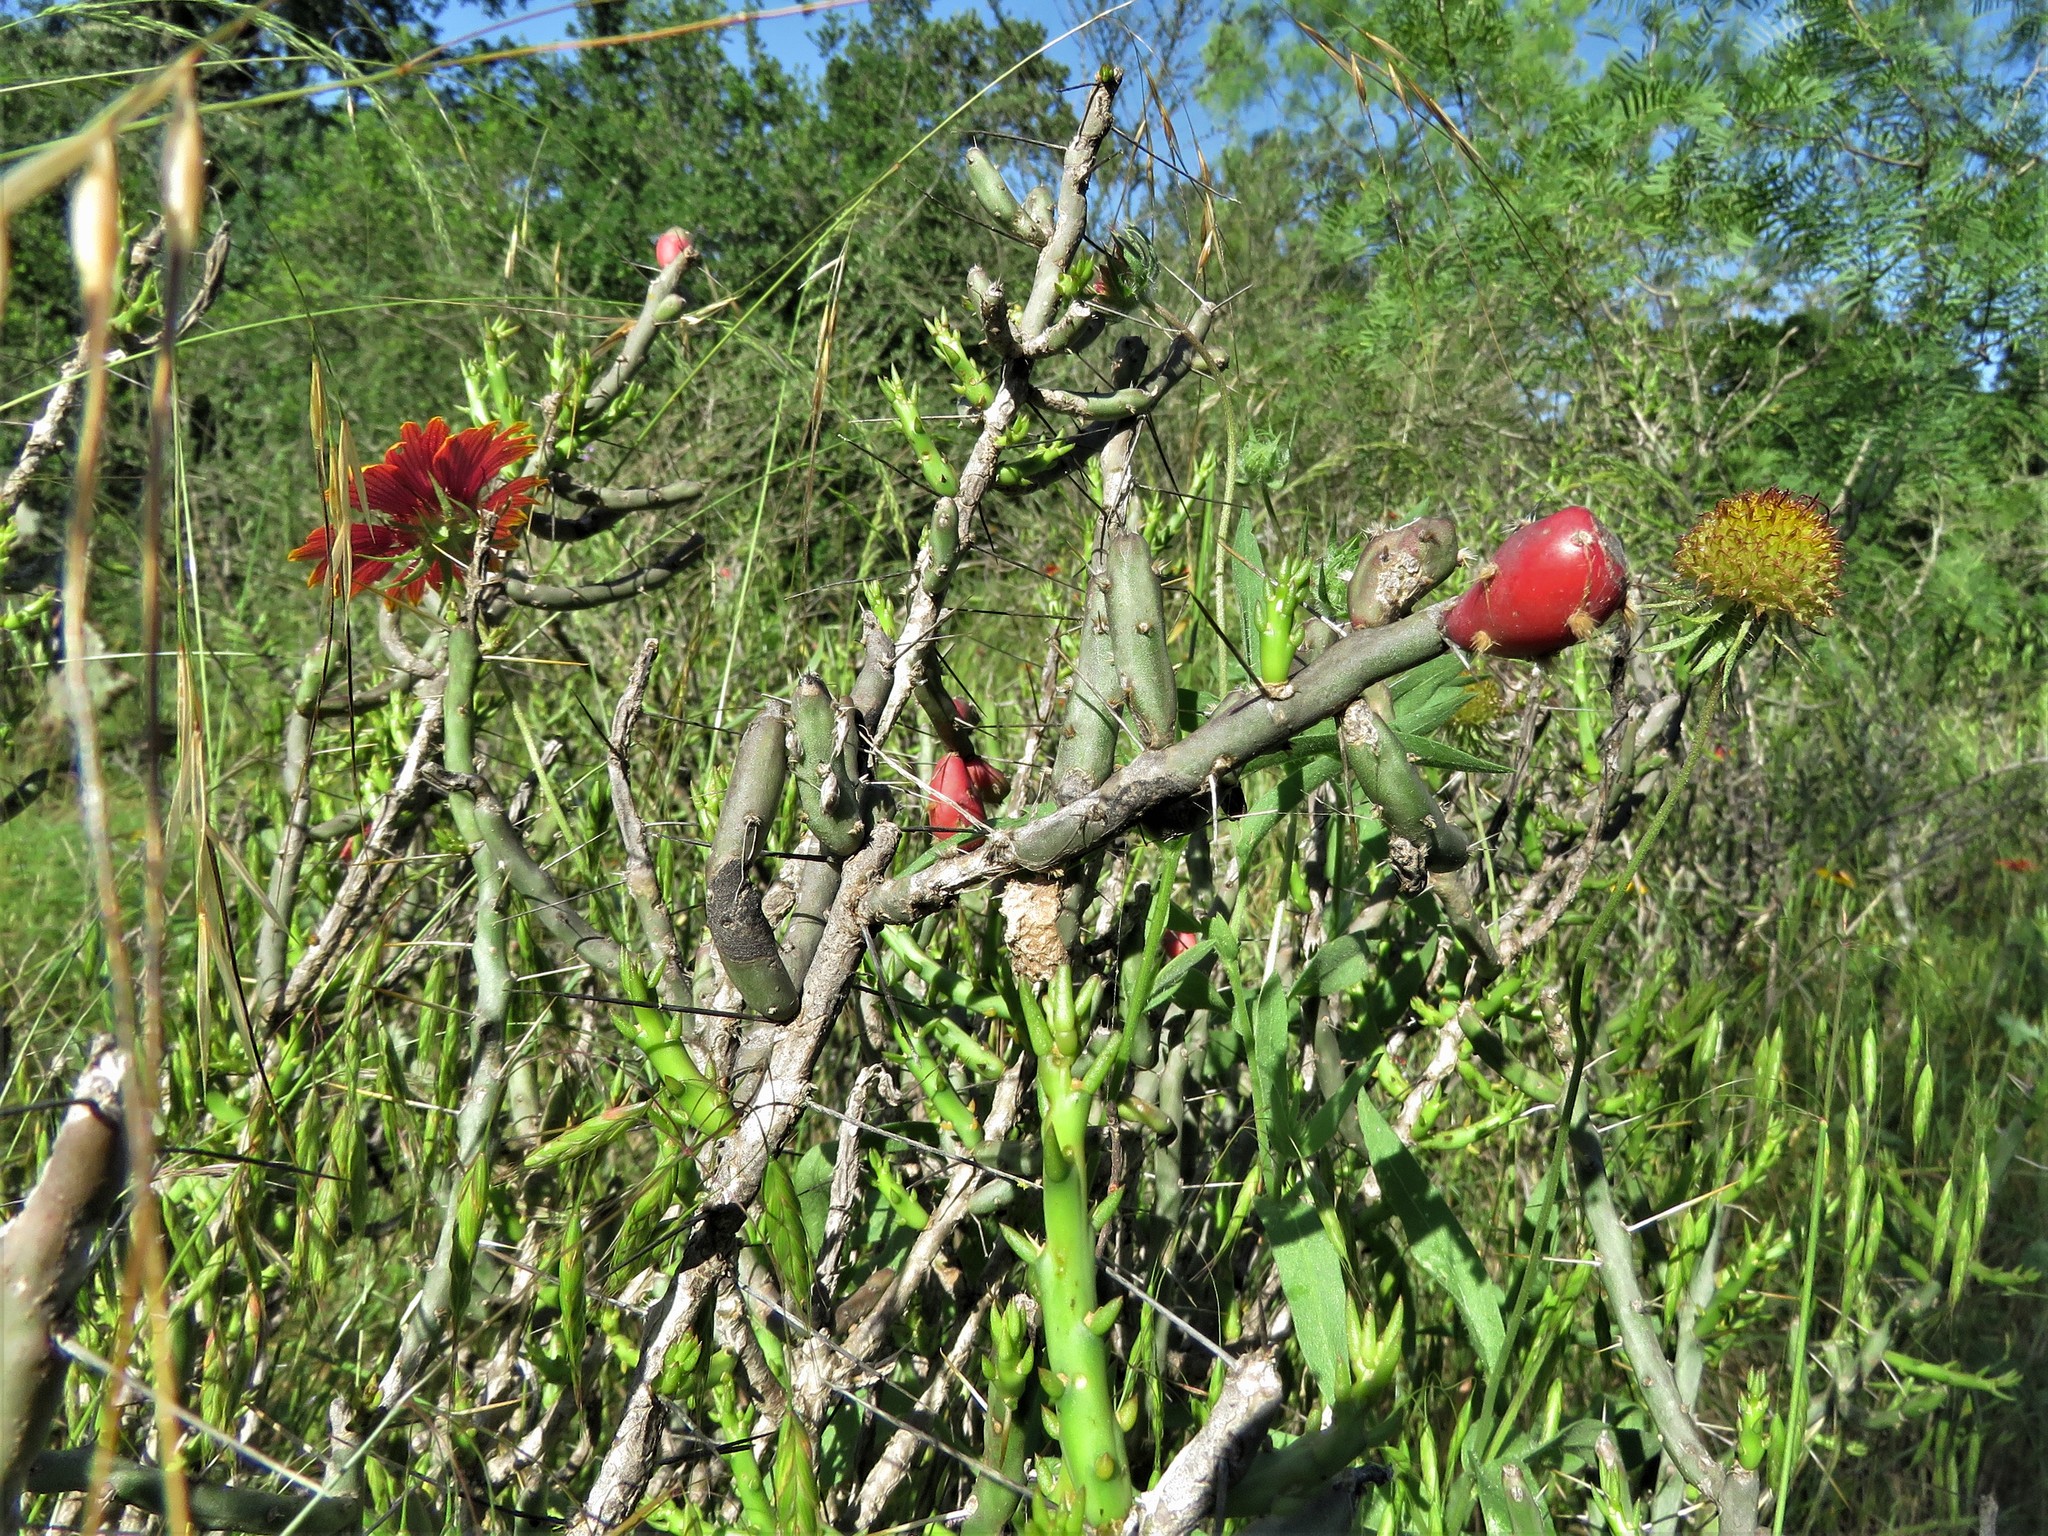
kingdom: Plantae
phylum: Tracheophyta
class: Magnoliopsida
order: Caryophyllales
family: Cactaceae
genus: Cylindropuntia
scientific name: Cylindropuntia leptocaulis
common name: Christmas cactus
